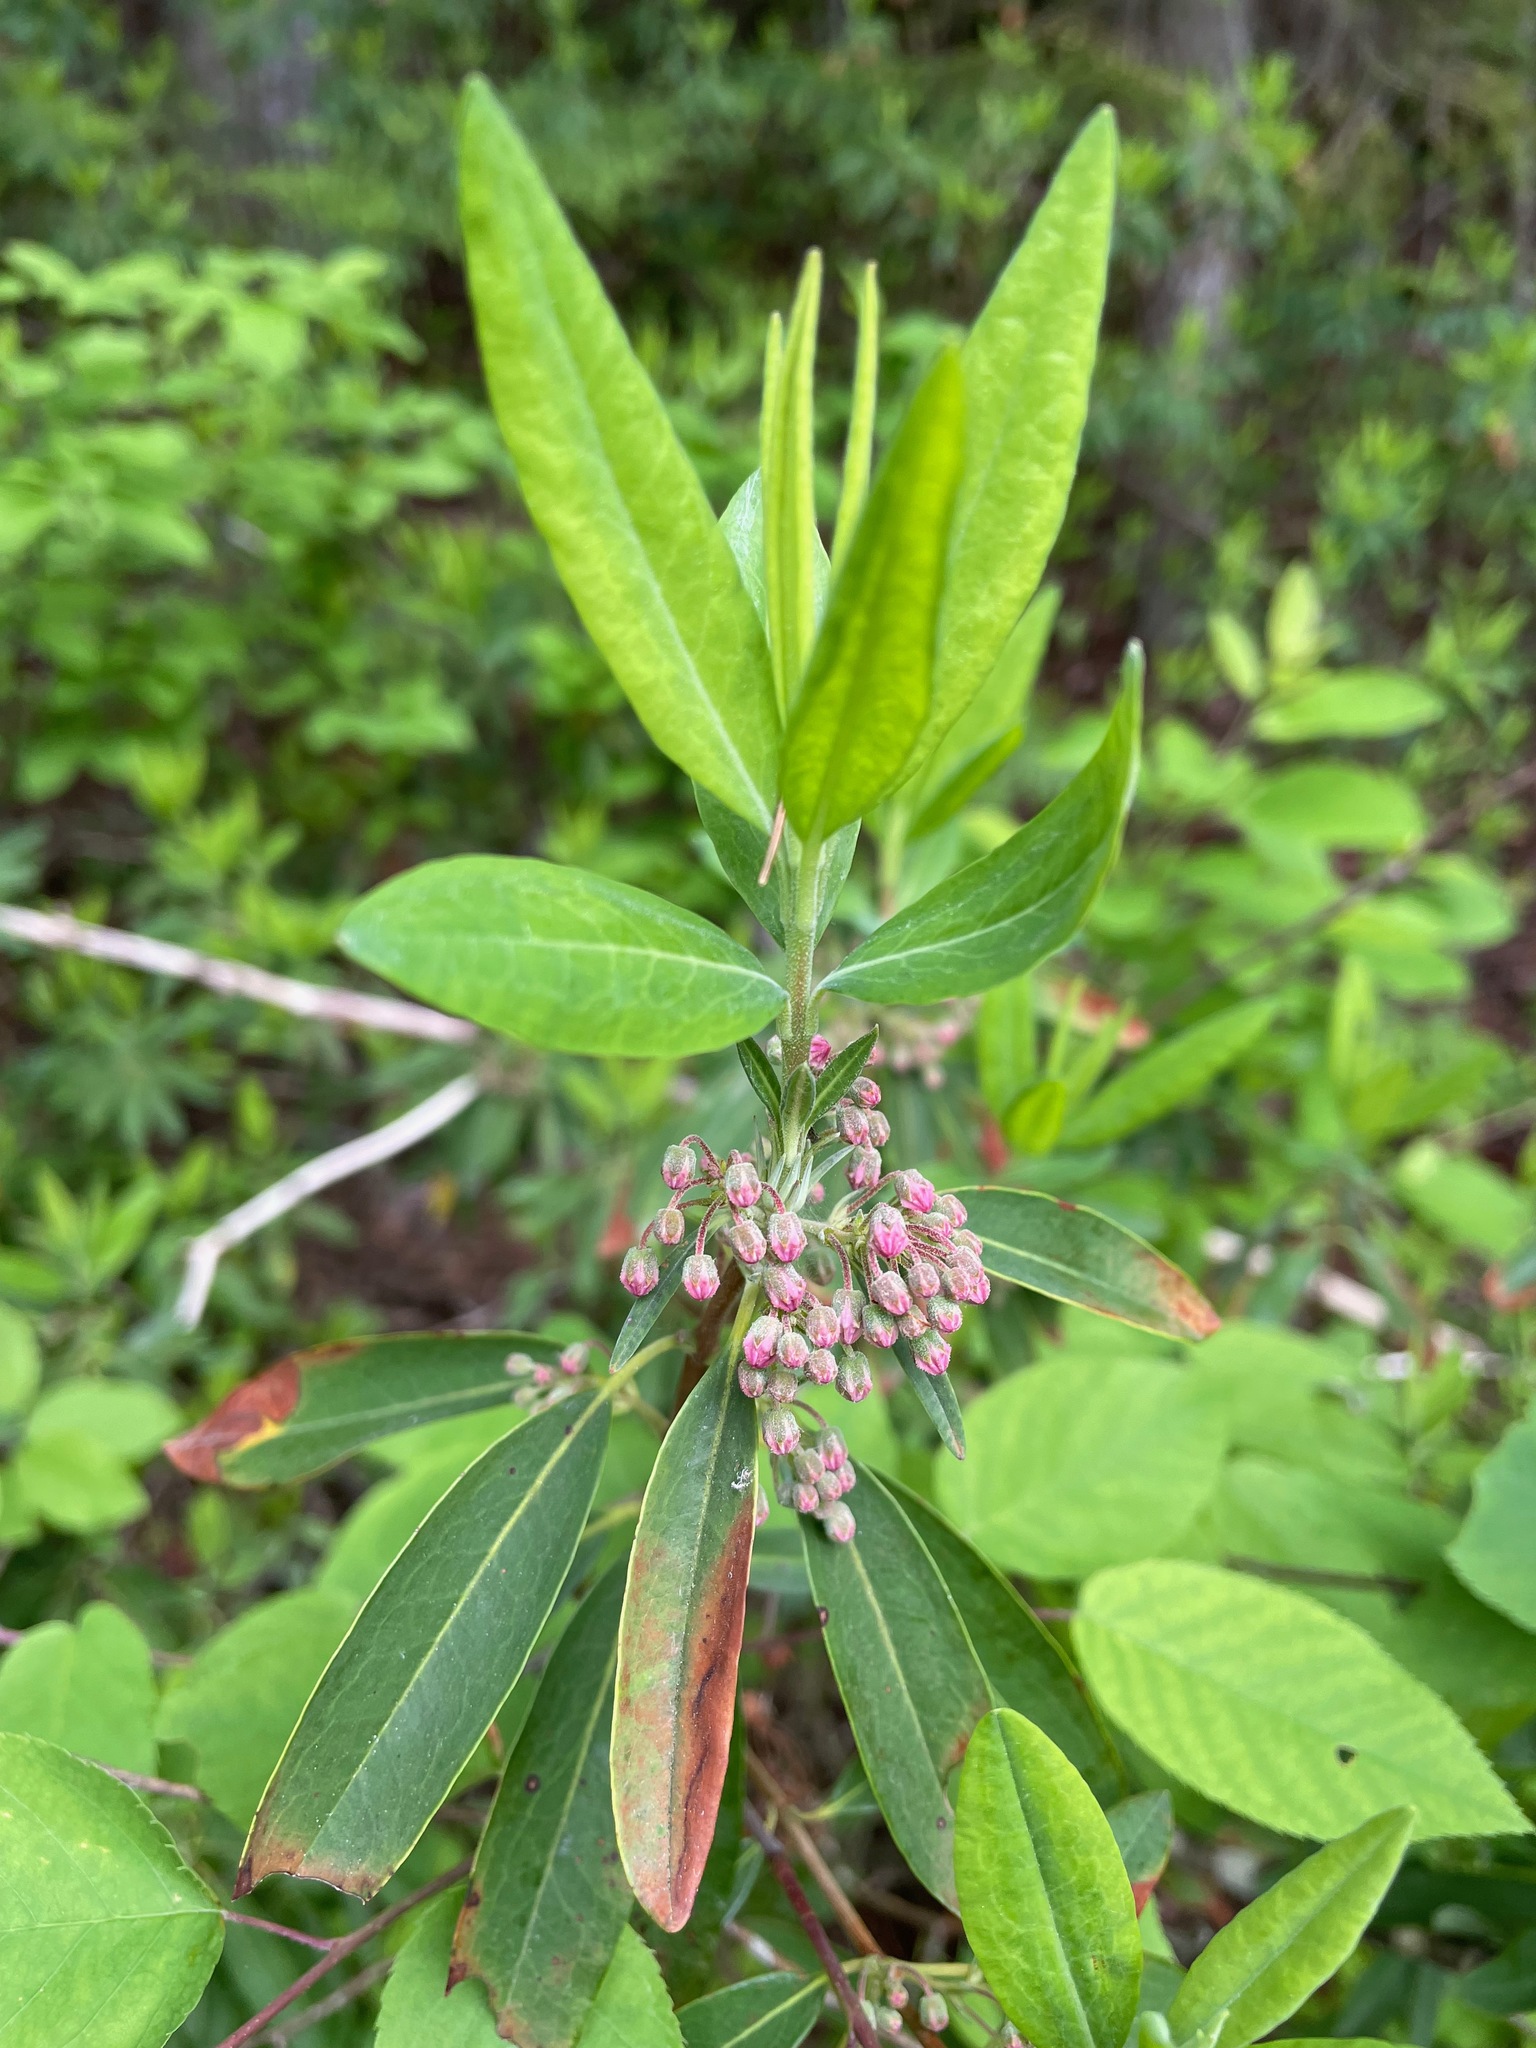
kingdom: Plantae
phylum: Tracheophyta
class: Magnoliopsida
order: Ericales
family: Ericaceae
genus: Kalmia
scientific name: Kalmia angustifolia
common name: Sheep-laurel
